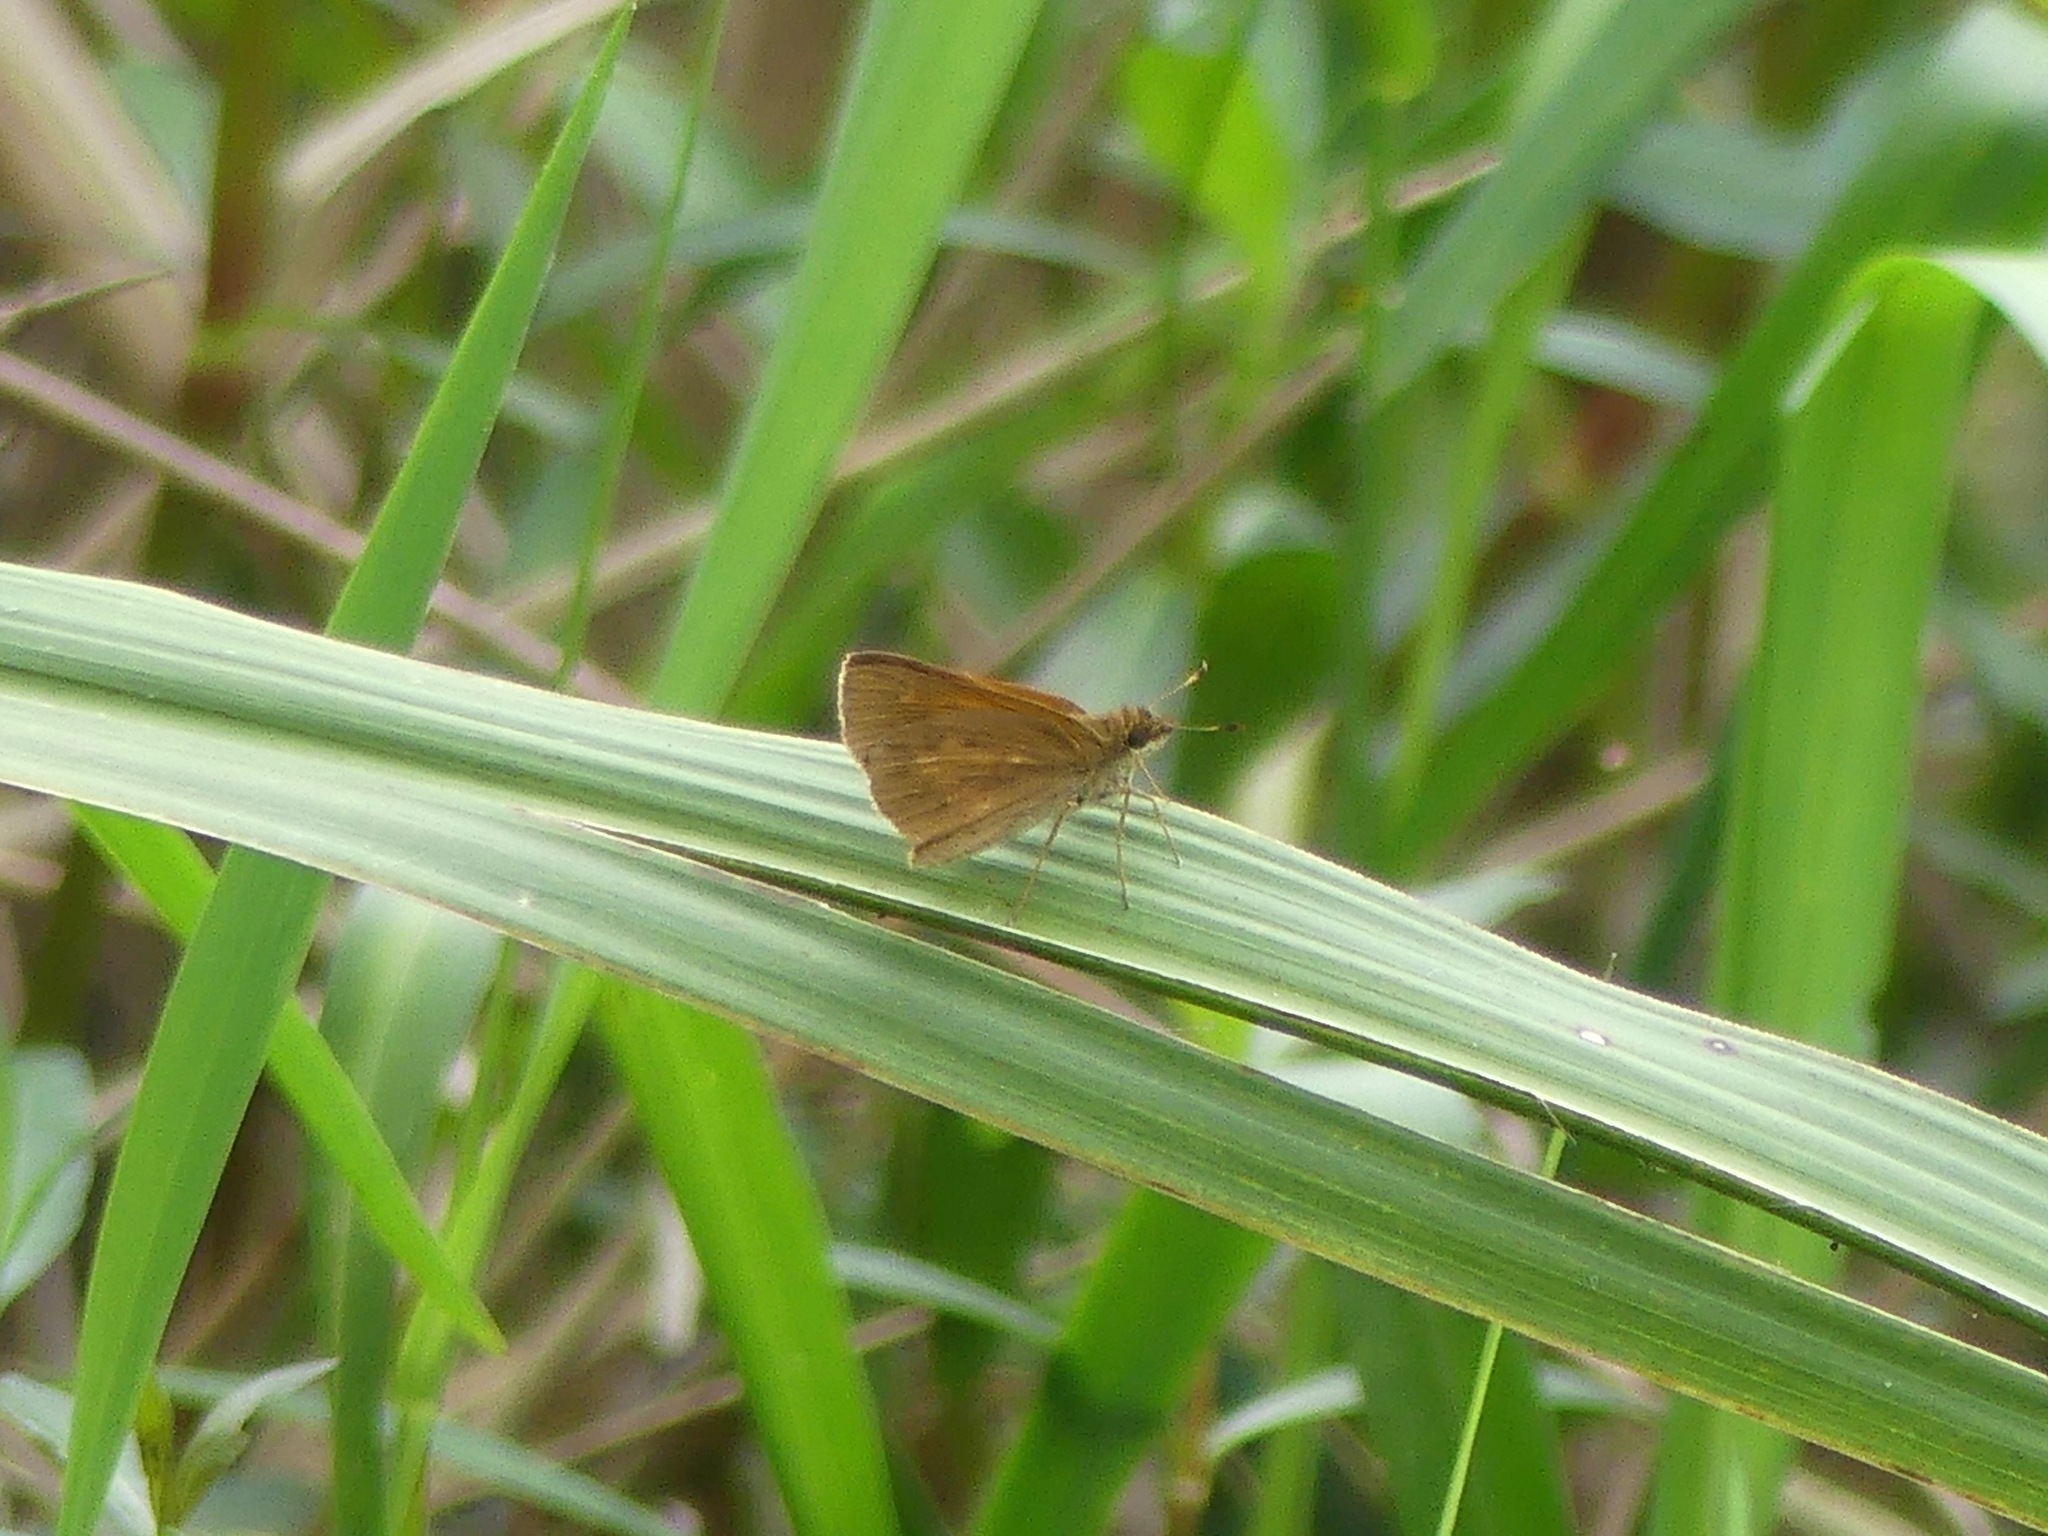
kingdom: Animalia
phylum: Arthropoda
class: Insecta
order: Lepidoptera
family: Hesperiidae
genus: Poanes
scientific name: Poanes viator
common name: Broad-winged skipper
